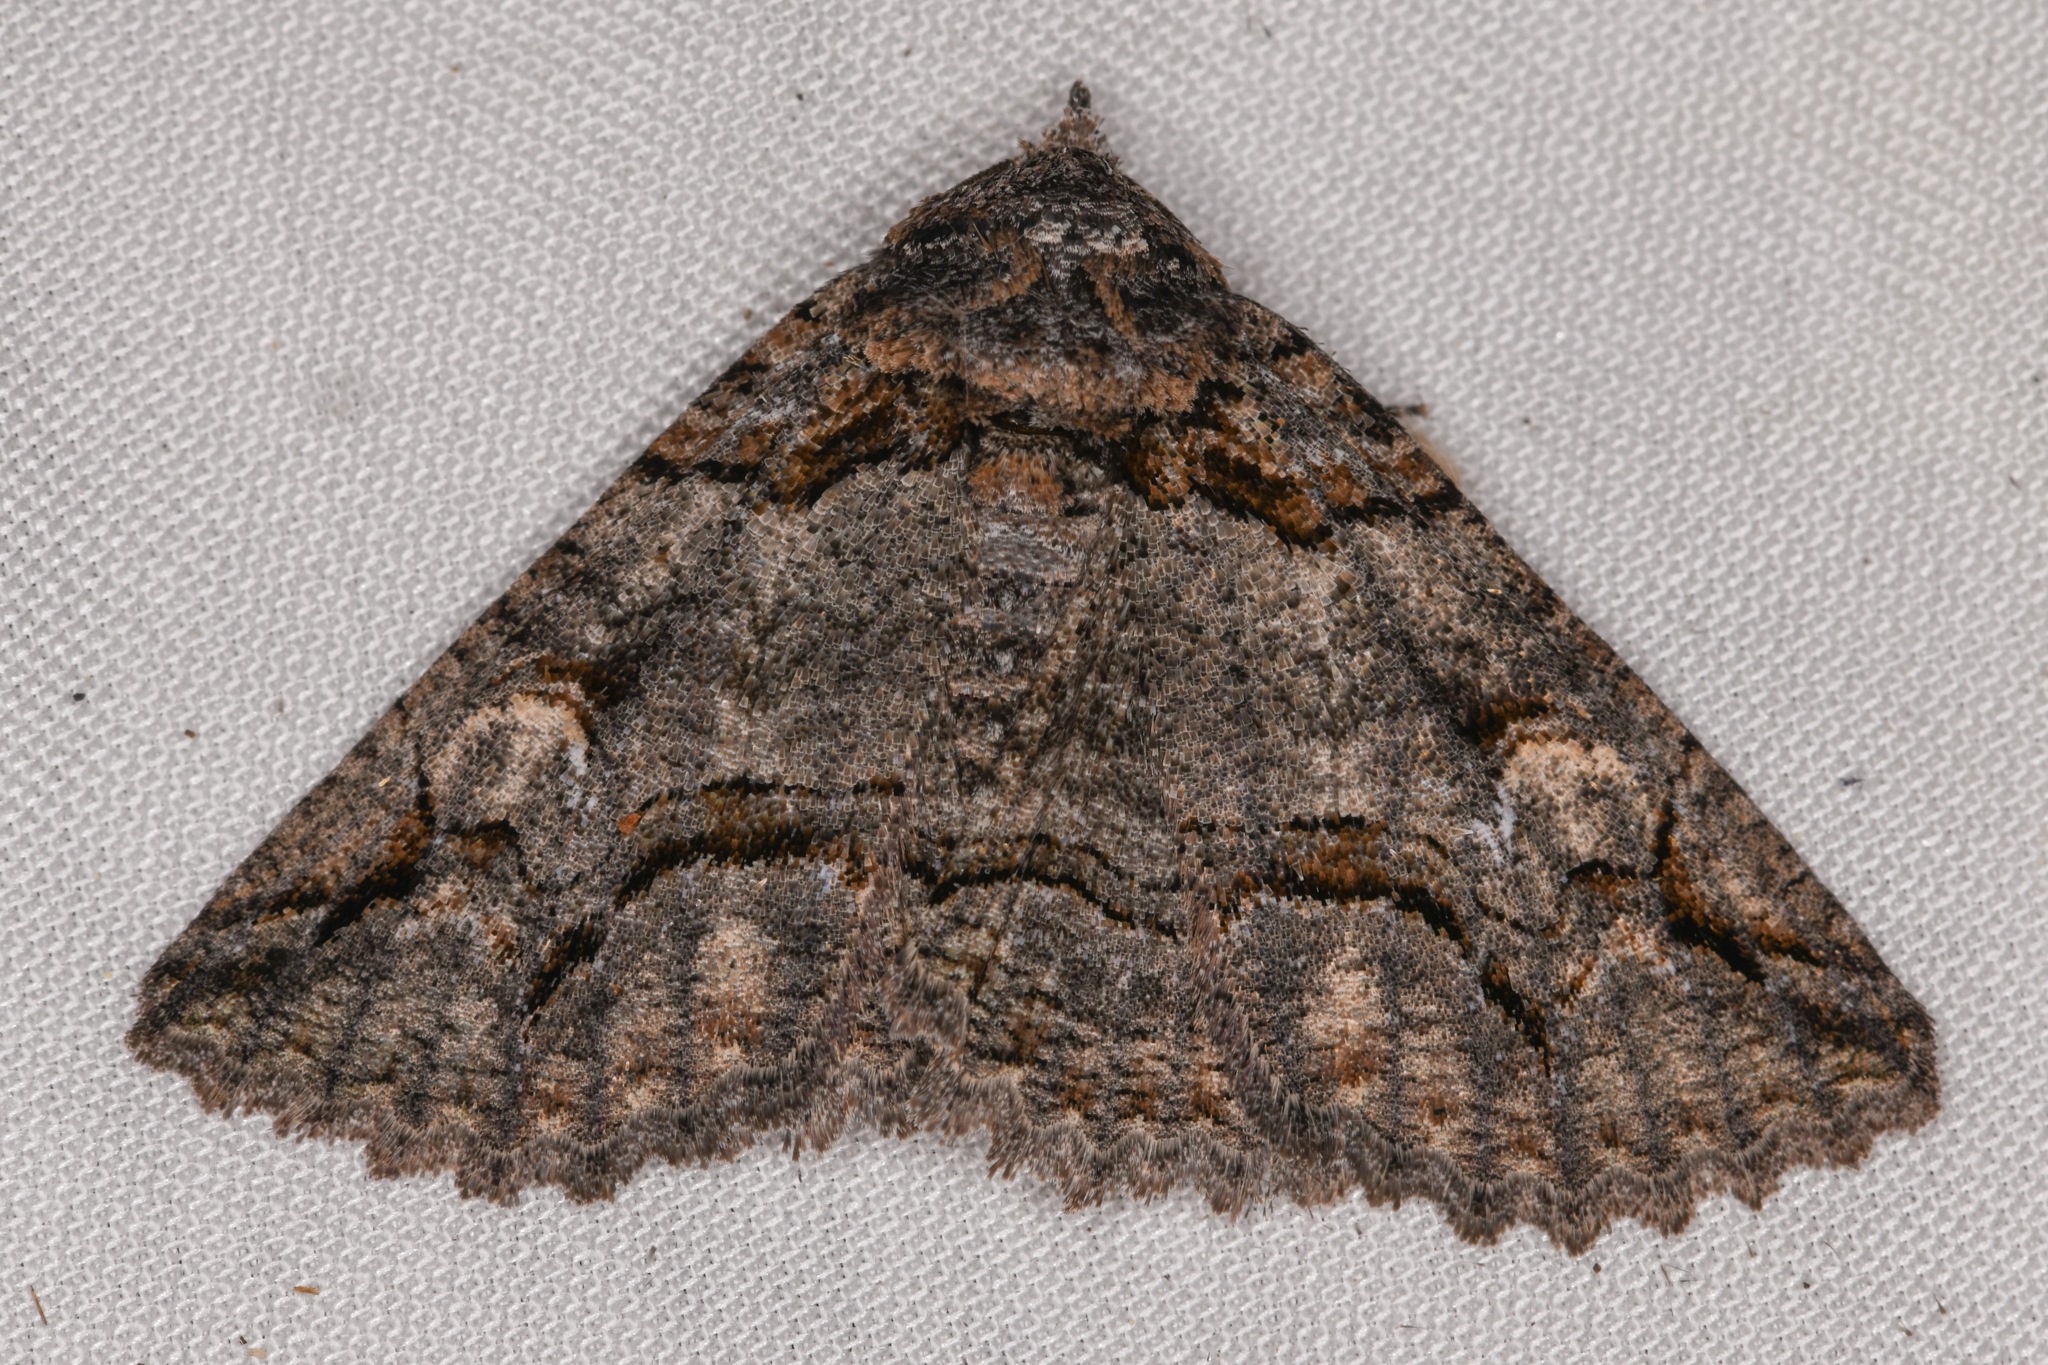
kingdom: Animalia
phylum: Arthropoda
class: Insecta
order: Lepidoptera
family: Erebidae
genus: Zale
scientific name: Zale termina
